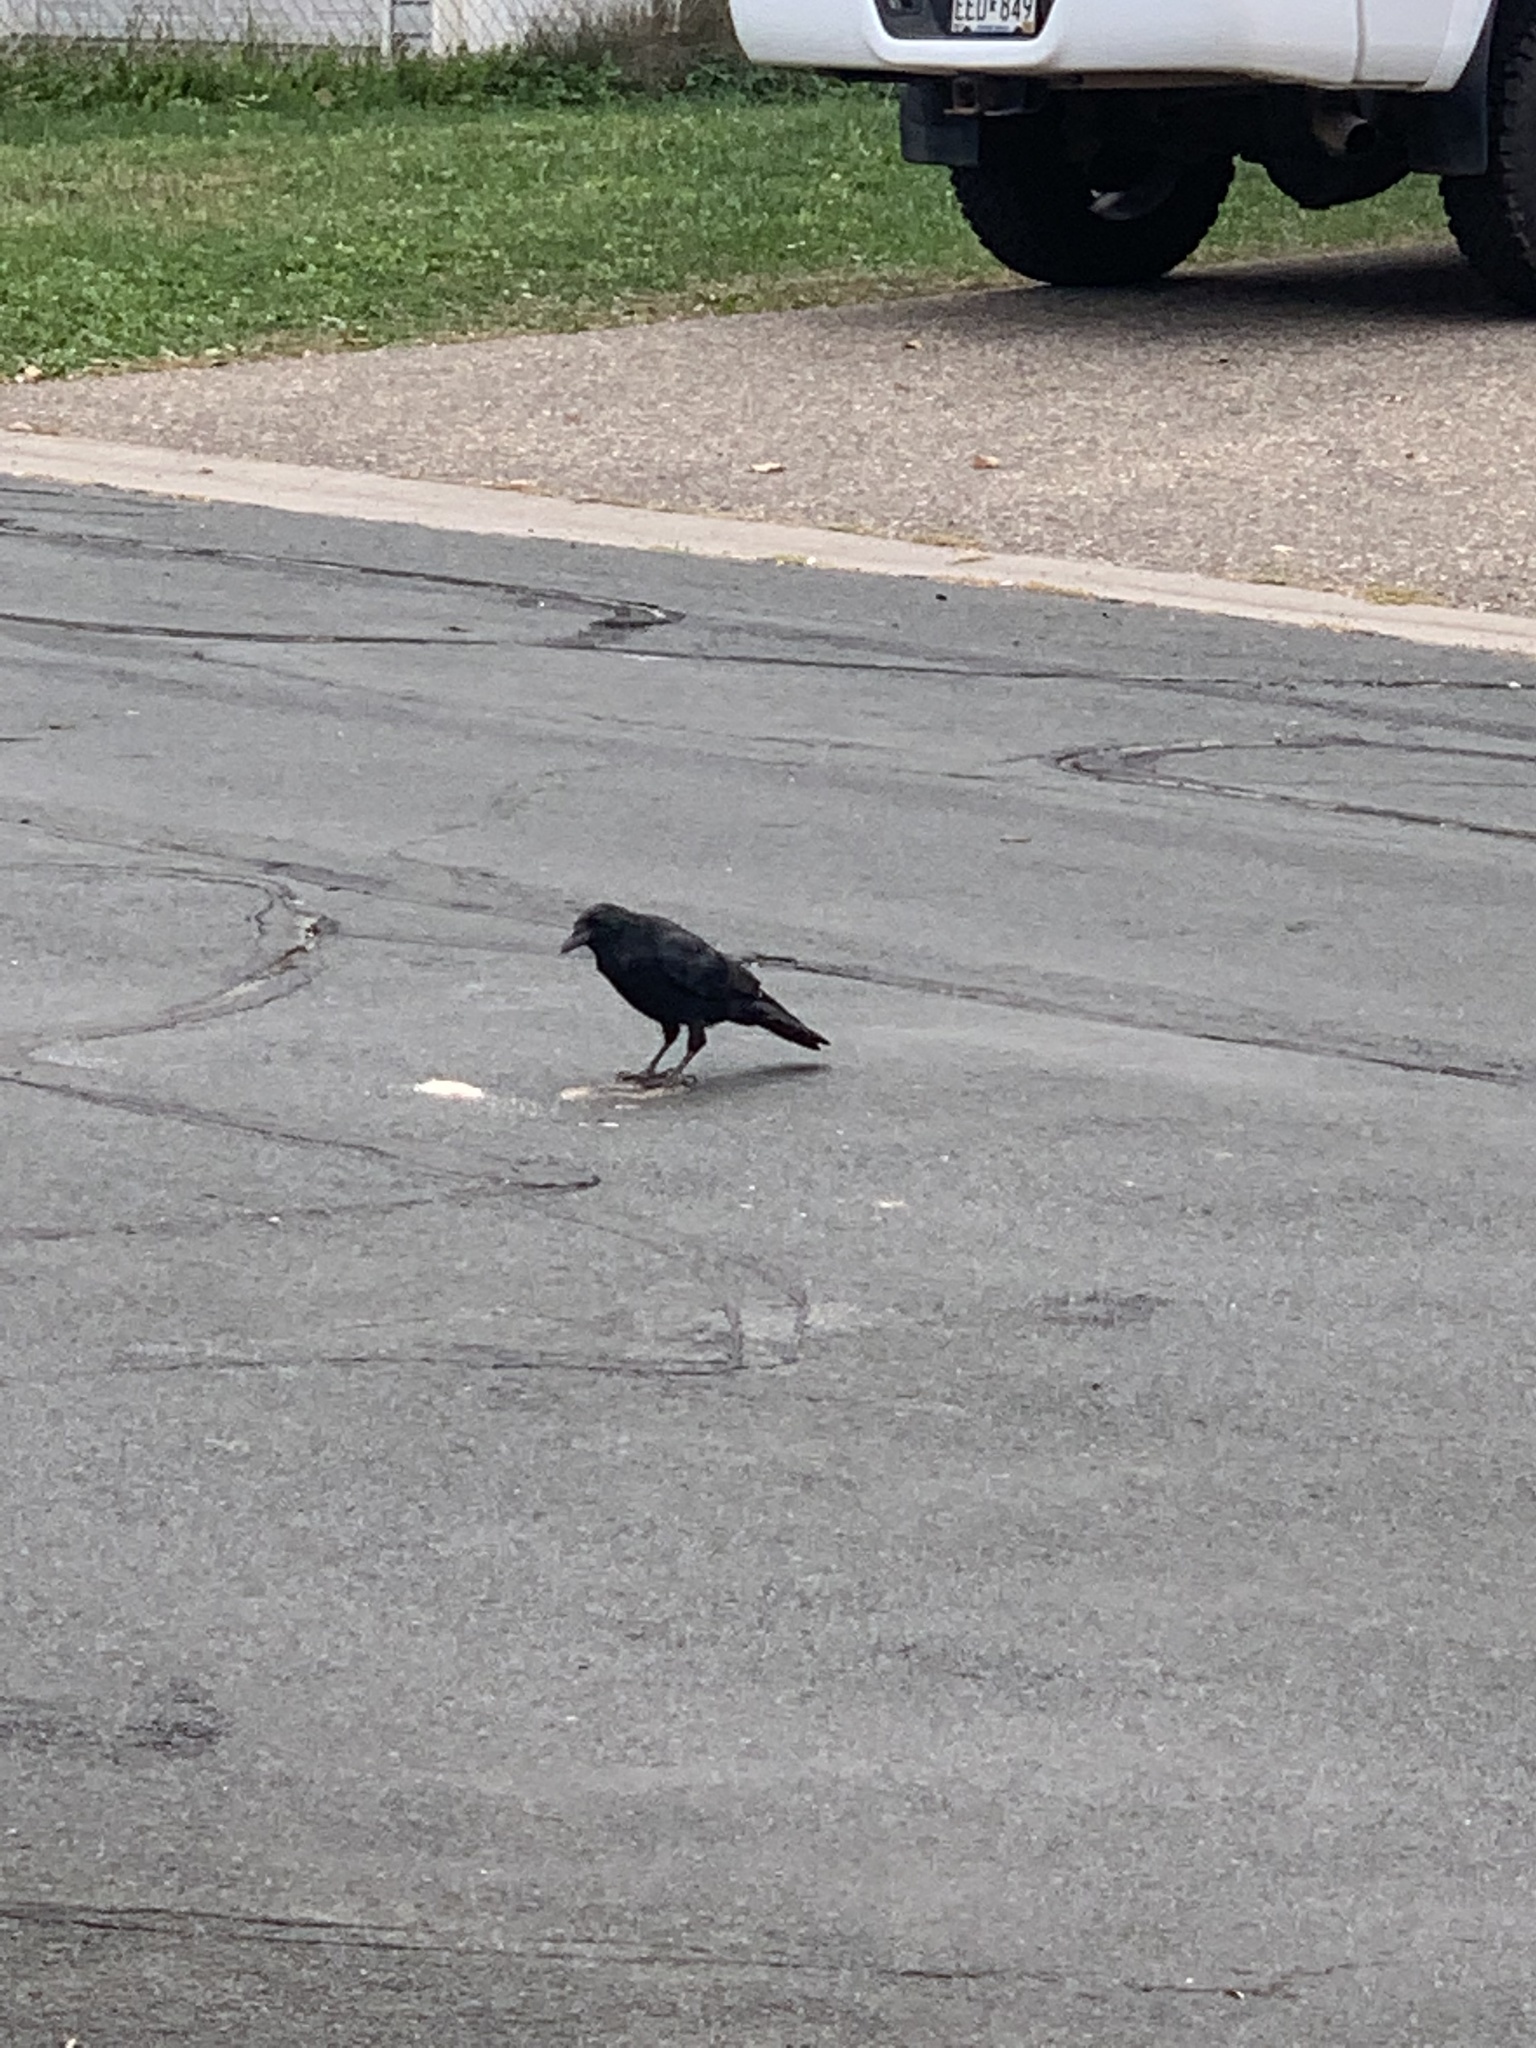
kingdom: Animalia
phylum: Chordata
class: Aves
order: Passeriformes
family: Corvidae
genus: Corvus
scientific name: Corvus brachyrhynchos
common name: American crow
